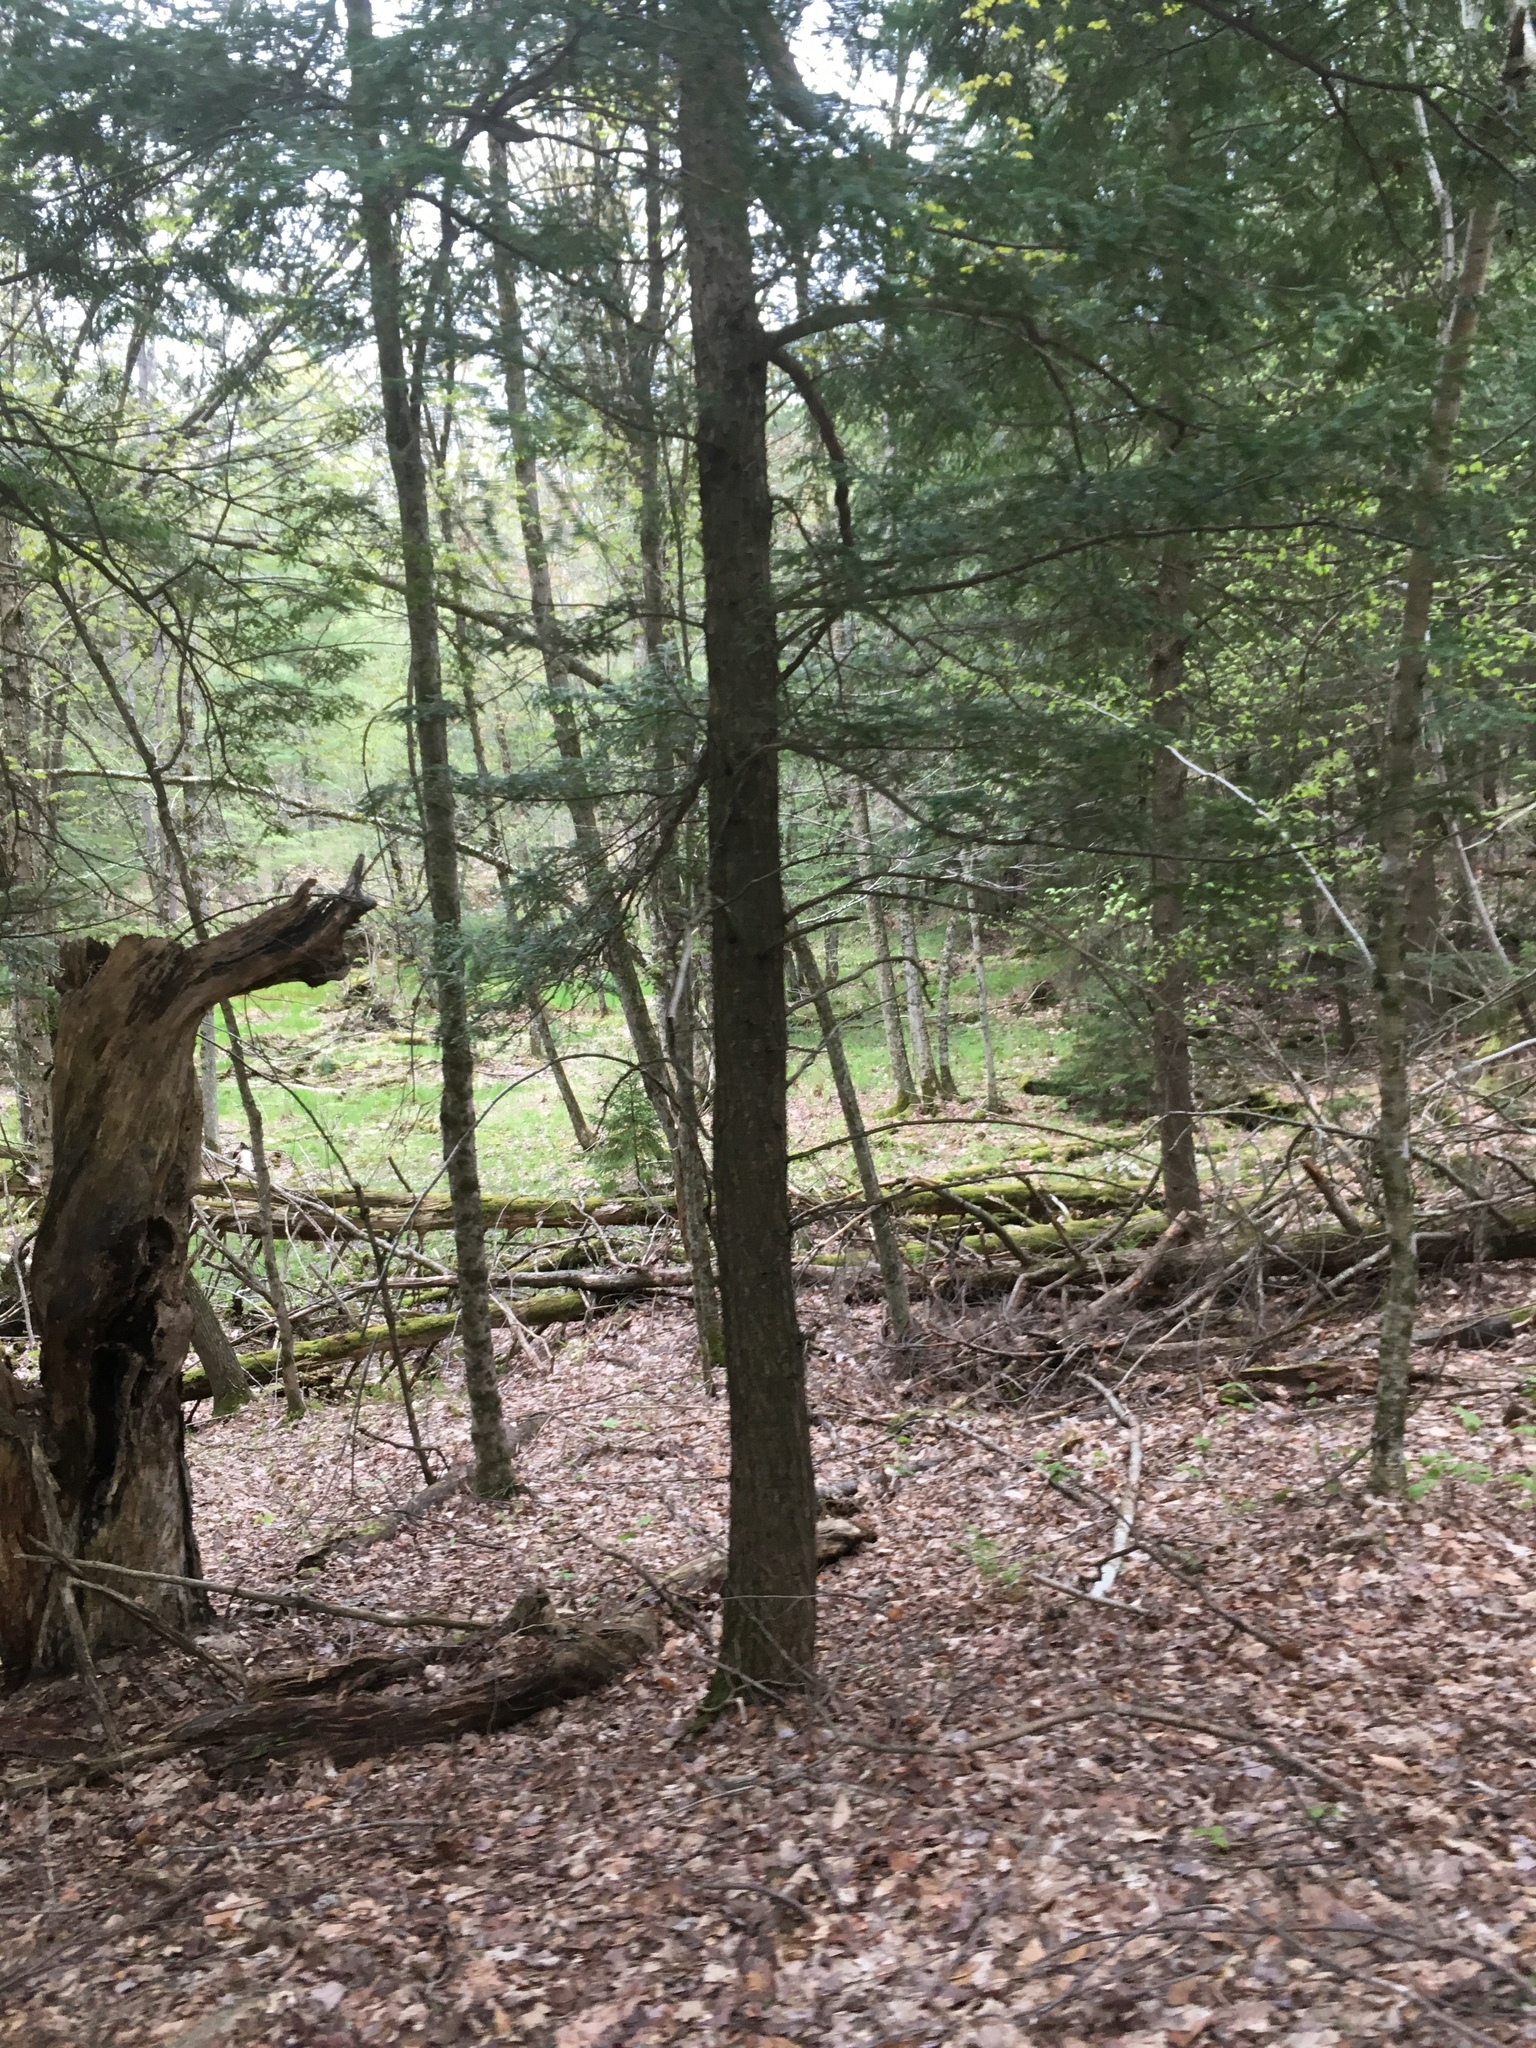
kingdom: Plantae
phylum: Tracheophyta
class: Pinopsida
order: Pinales
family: Pinaceae
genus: Tsuga
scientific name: Tsuga canadensis
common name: Eastern hemlock
